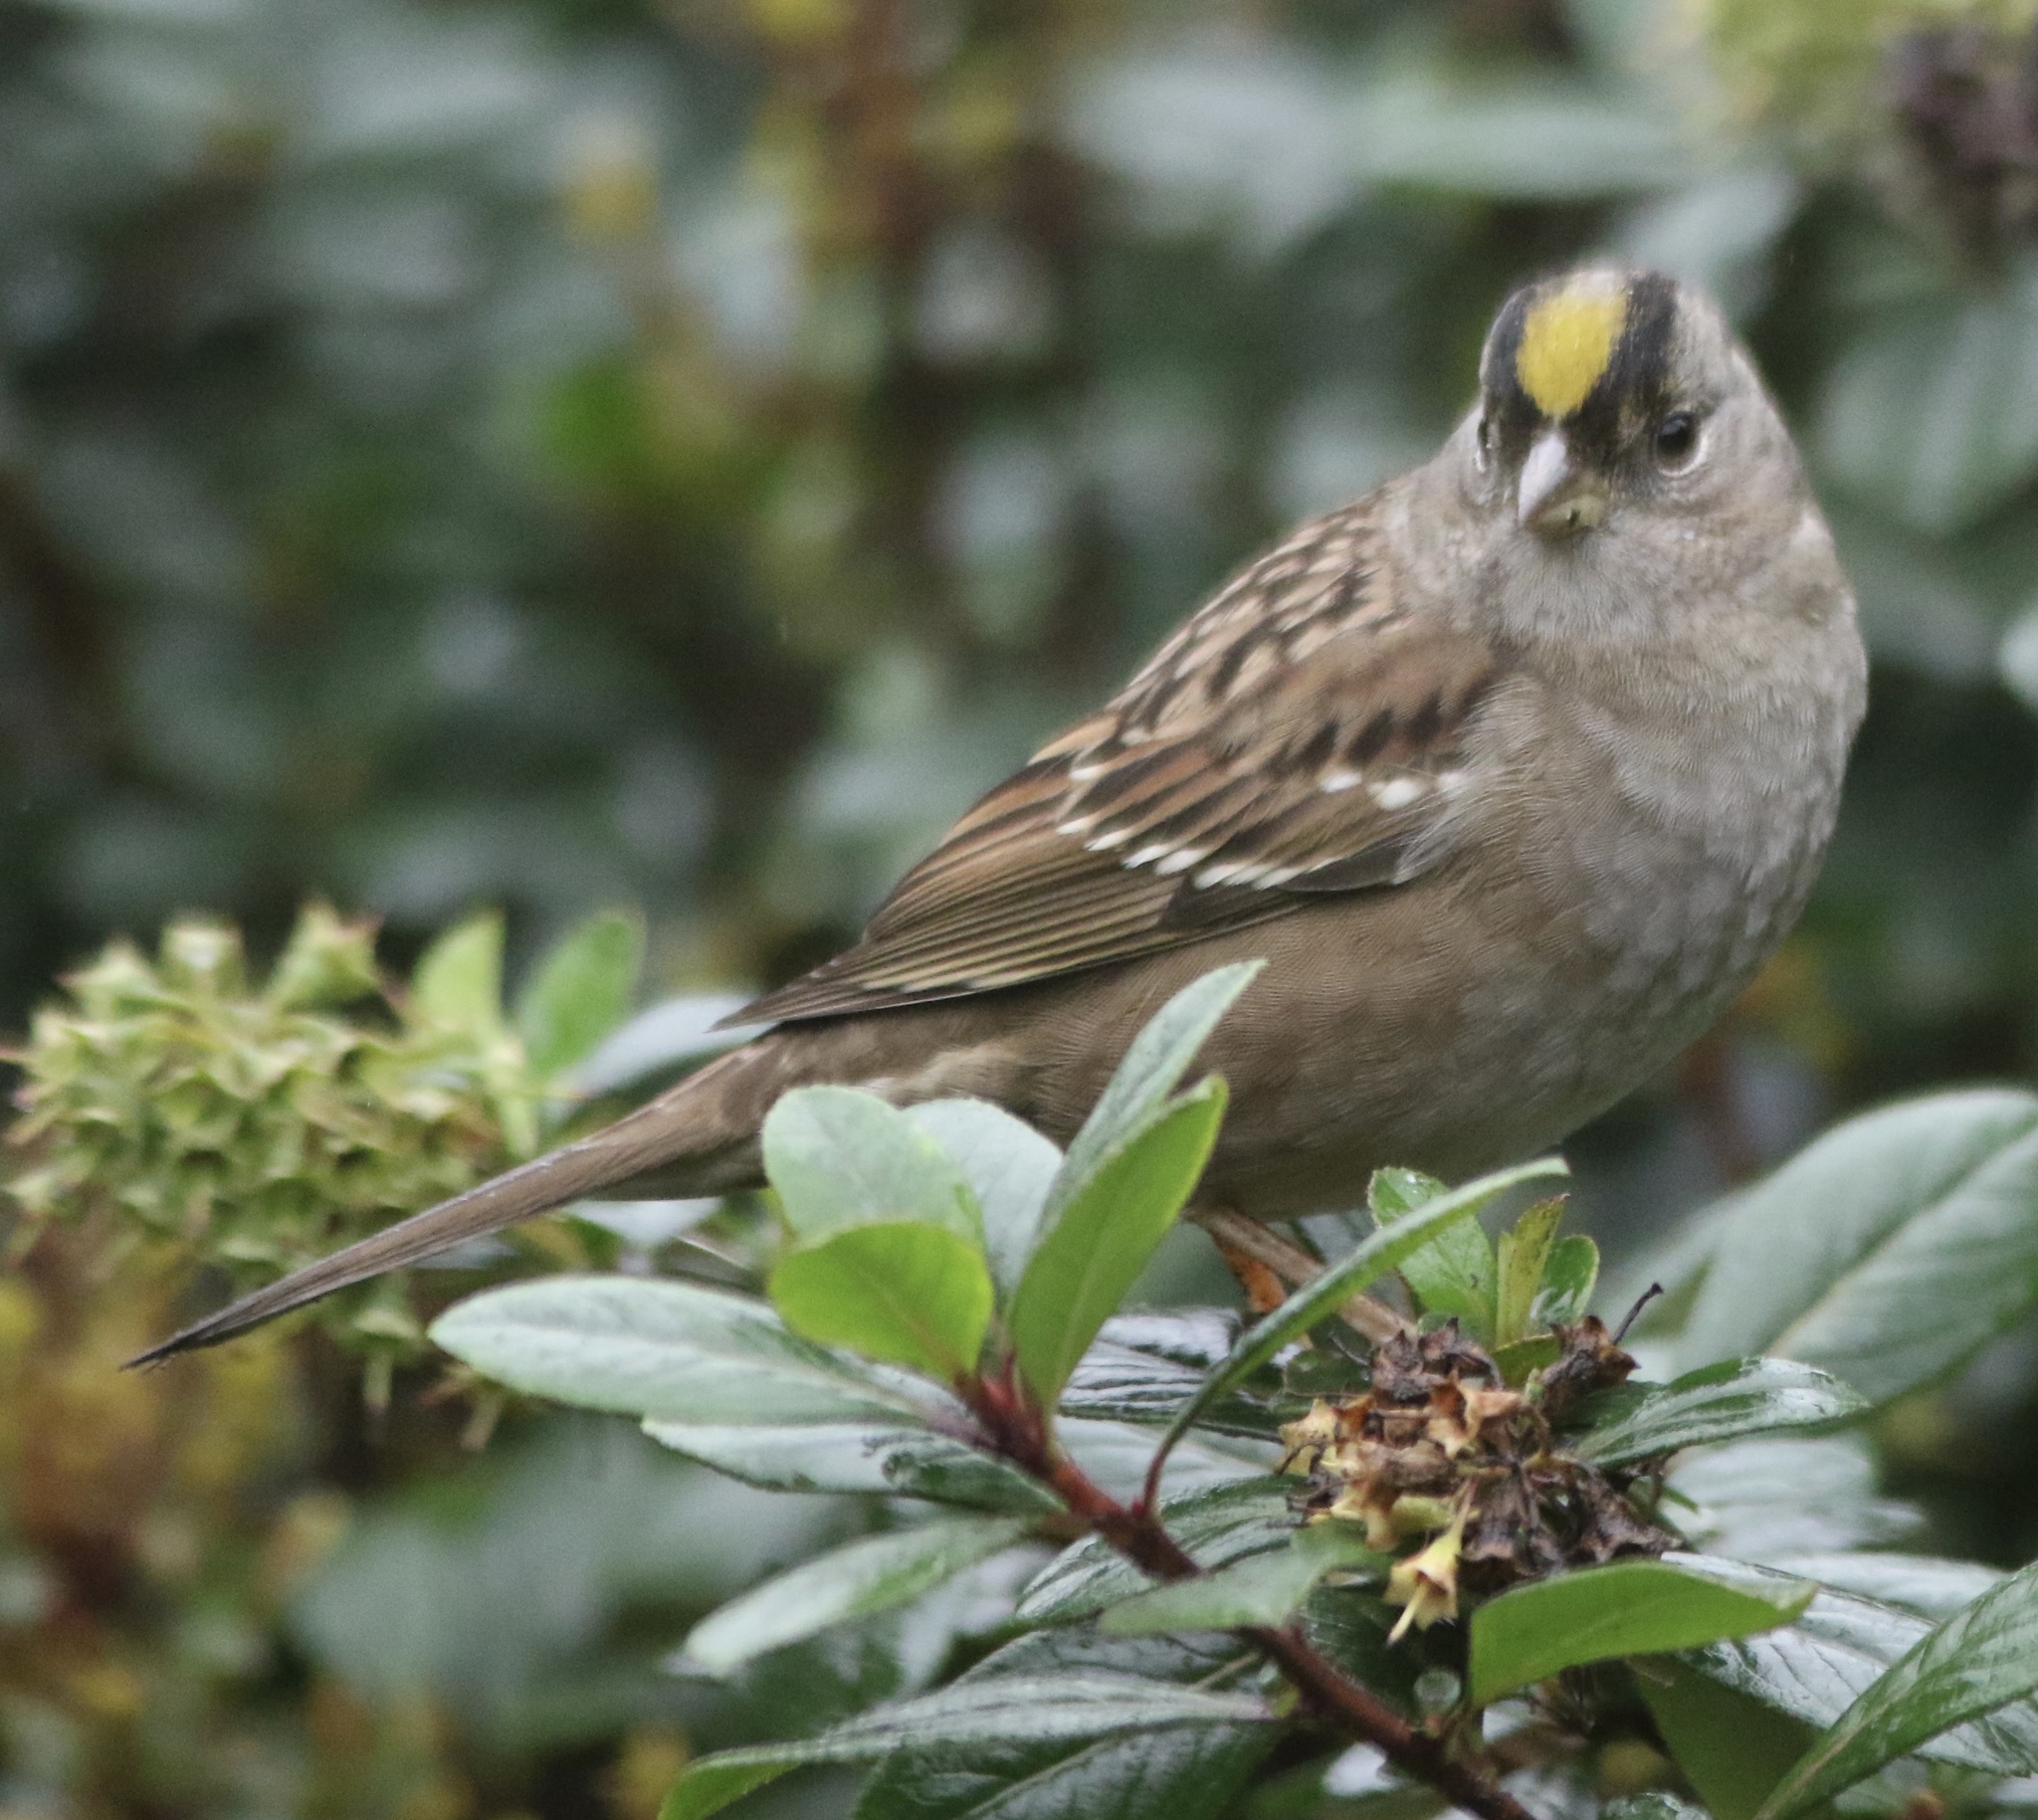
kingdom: Animalia
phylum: Chordata
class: Aves
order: Passeriformes
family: Passerellidae
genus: Zonotrichia
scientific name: Zonotrichia atricapilla
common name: Golden-crowned sparrow
